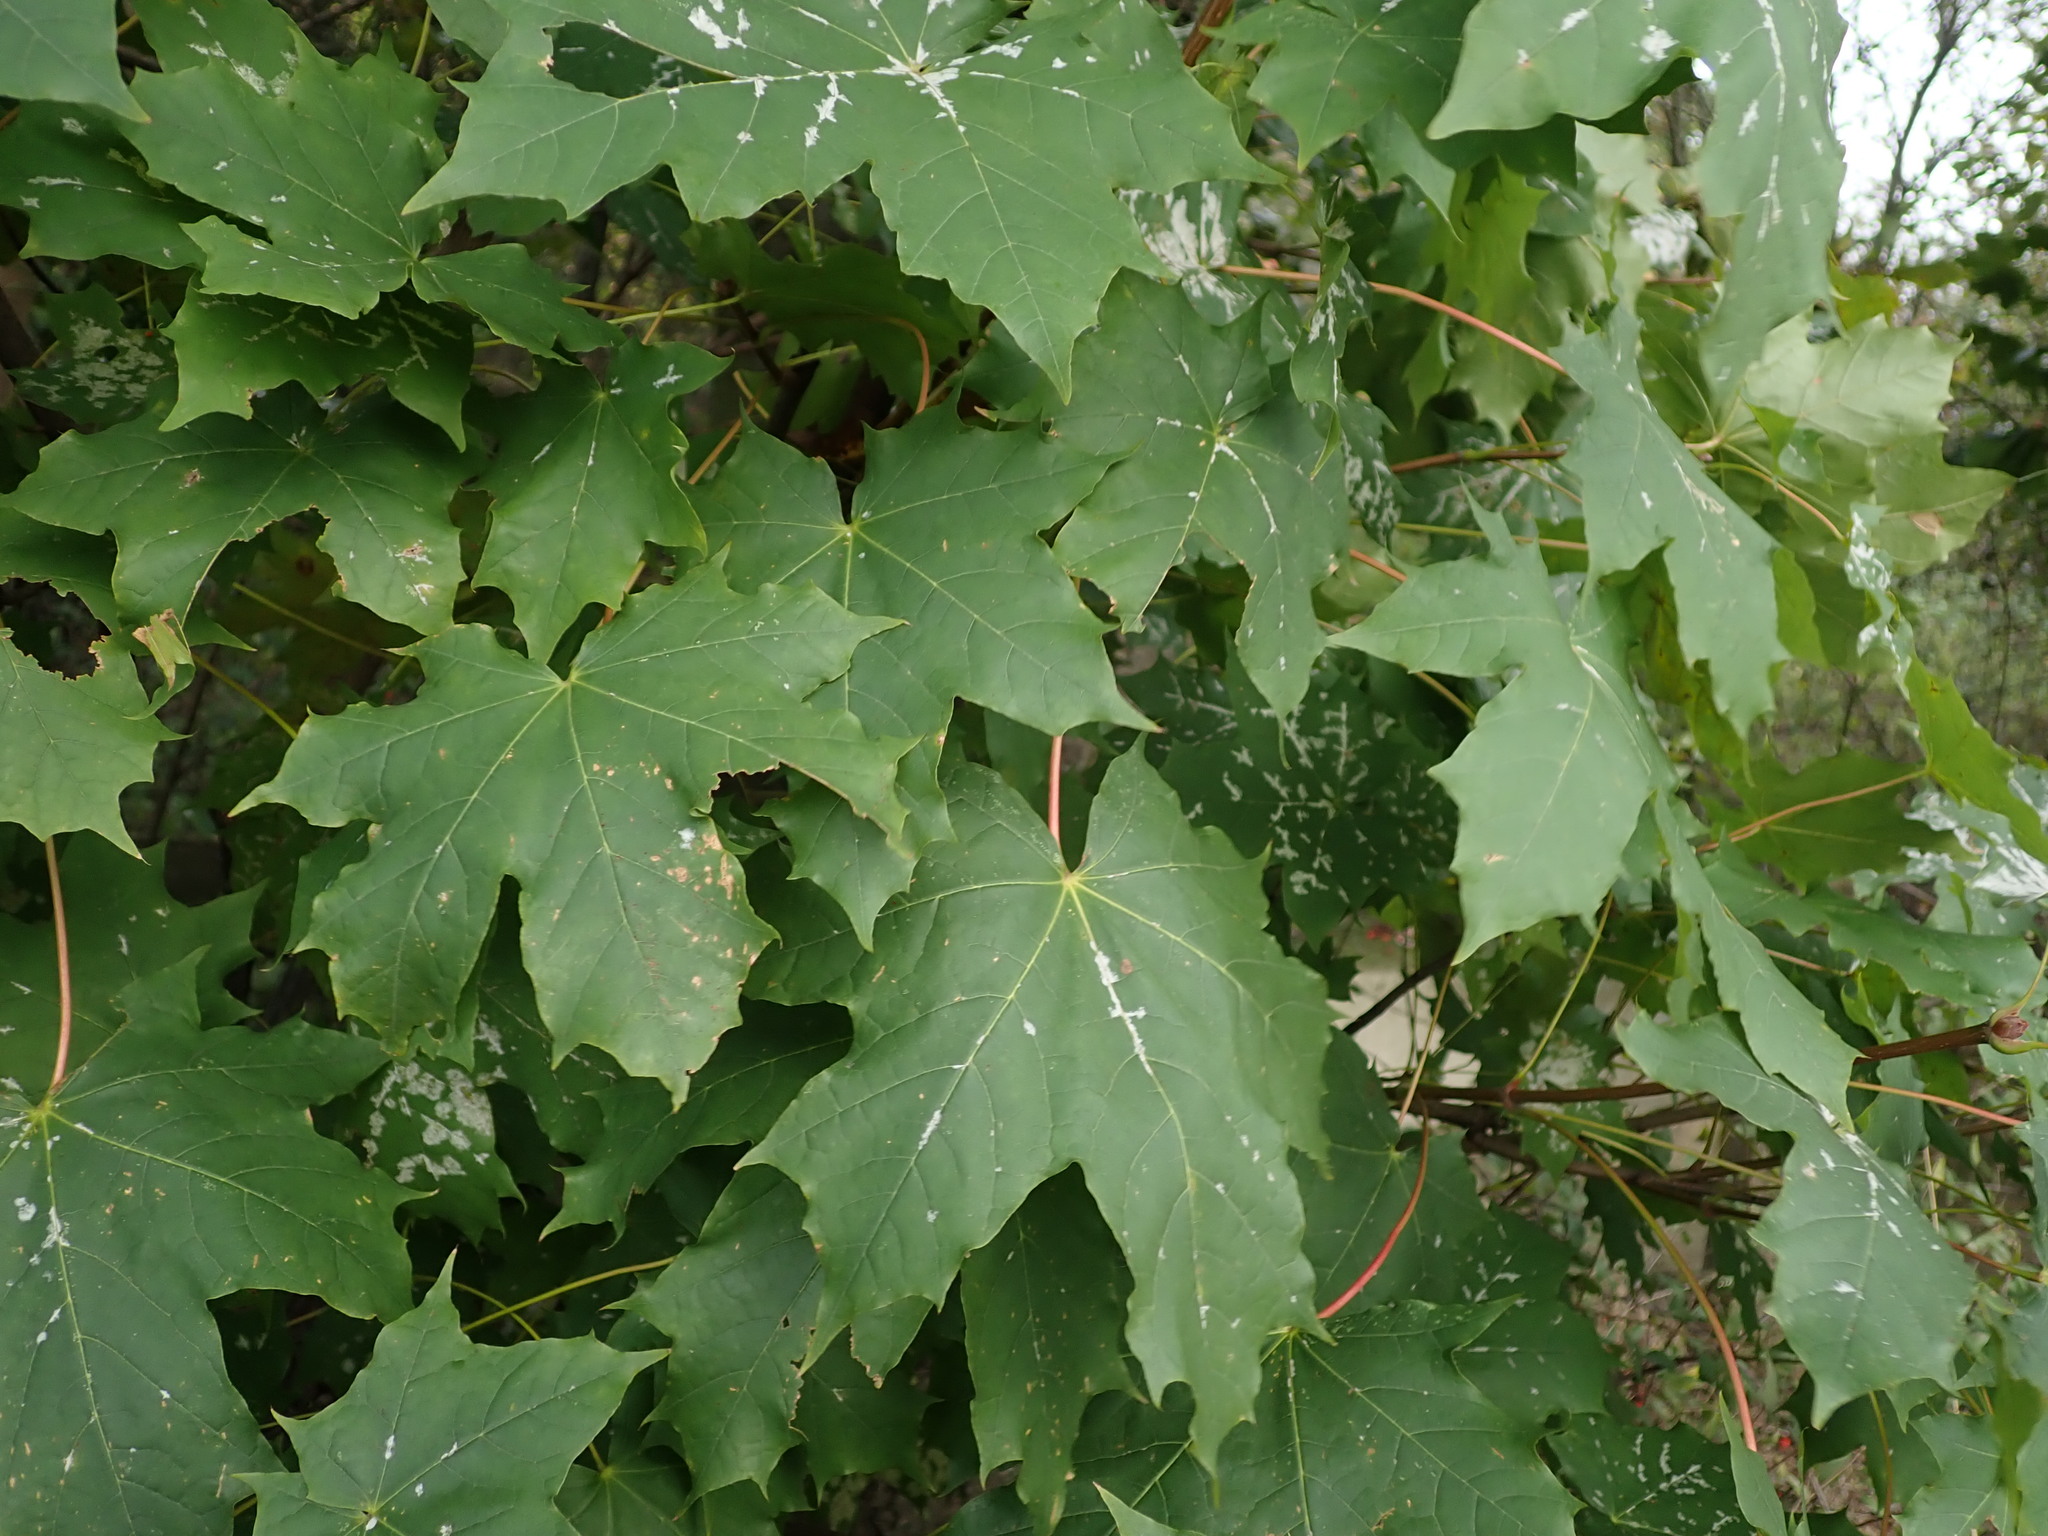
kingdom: Plantae
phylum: Tracheophyta
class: Magnoliopsida
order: Sapindales
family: Sapindaceae
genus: Acer
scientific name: Acer platanoides
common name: Norway maple
